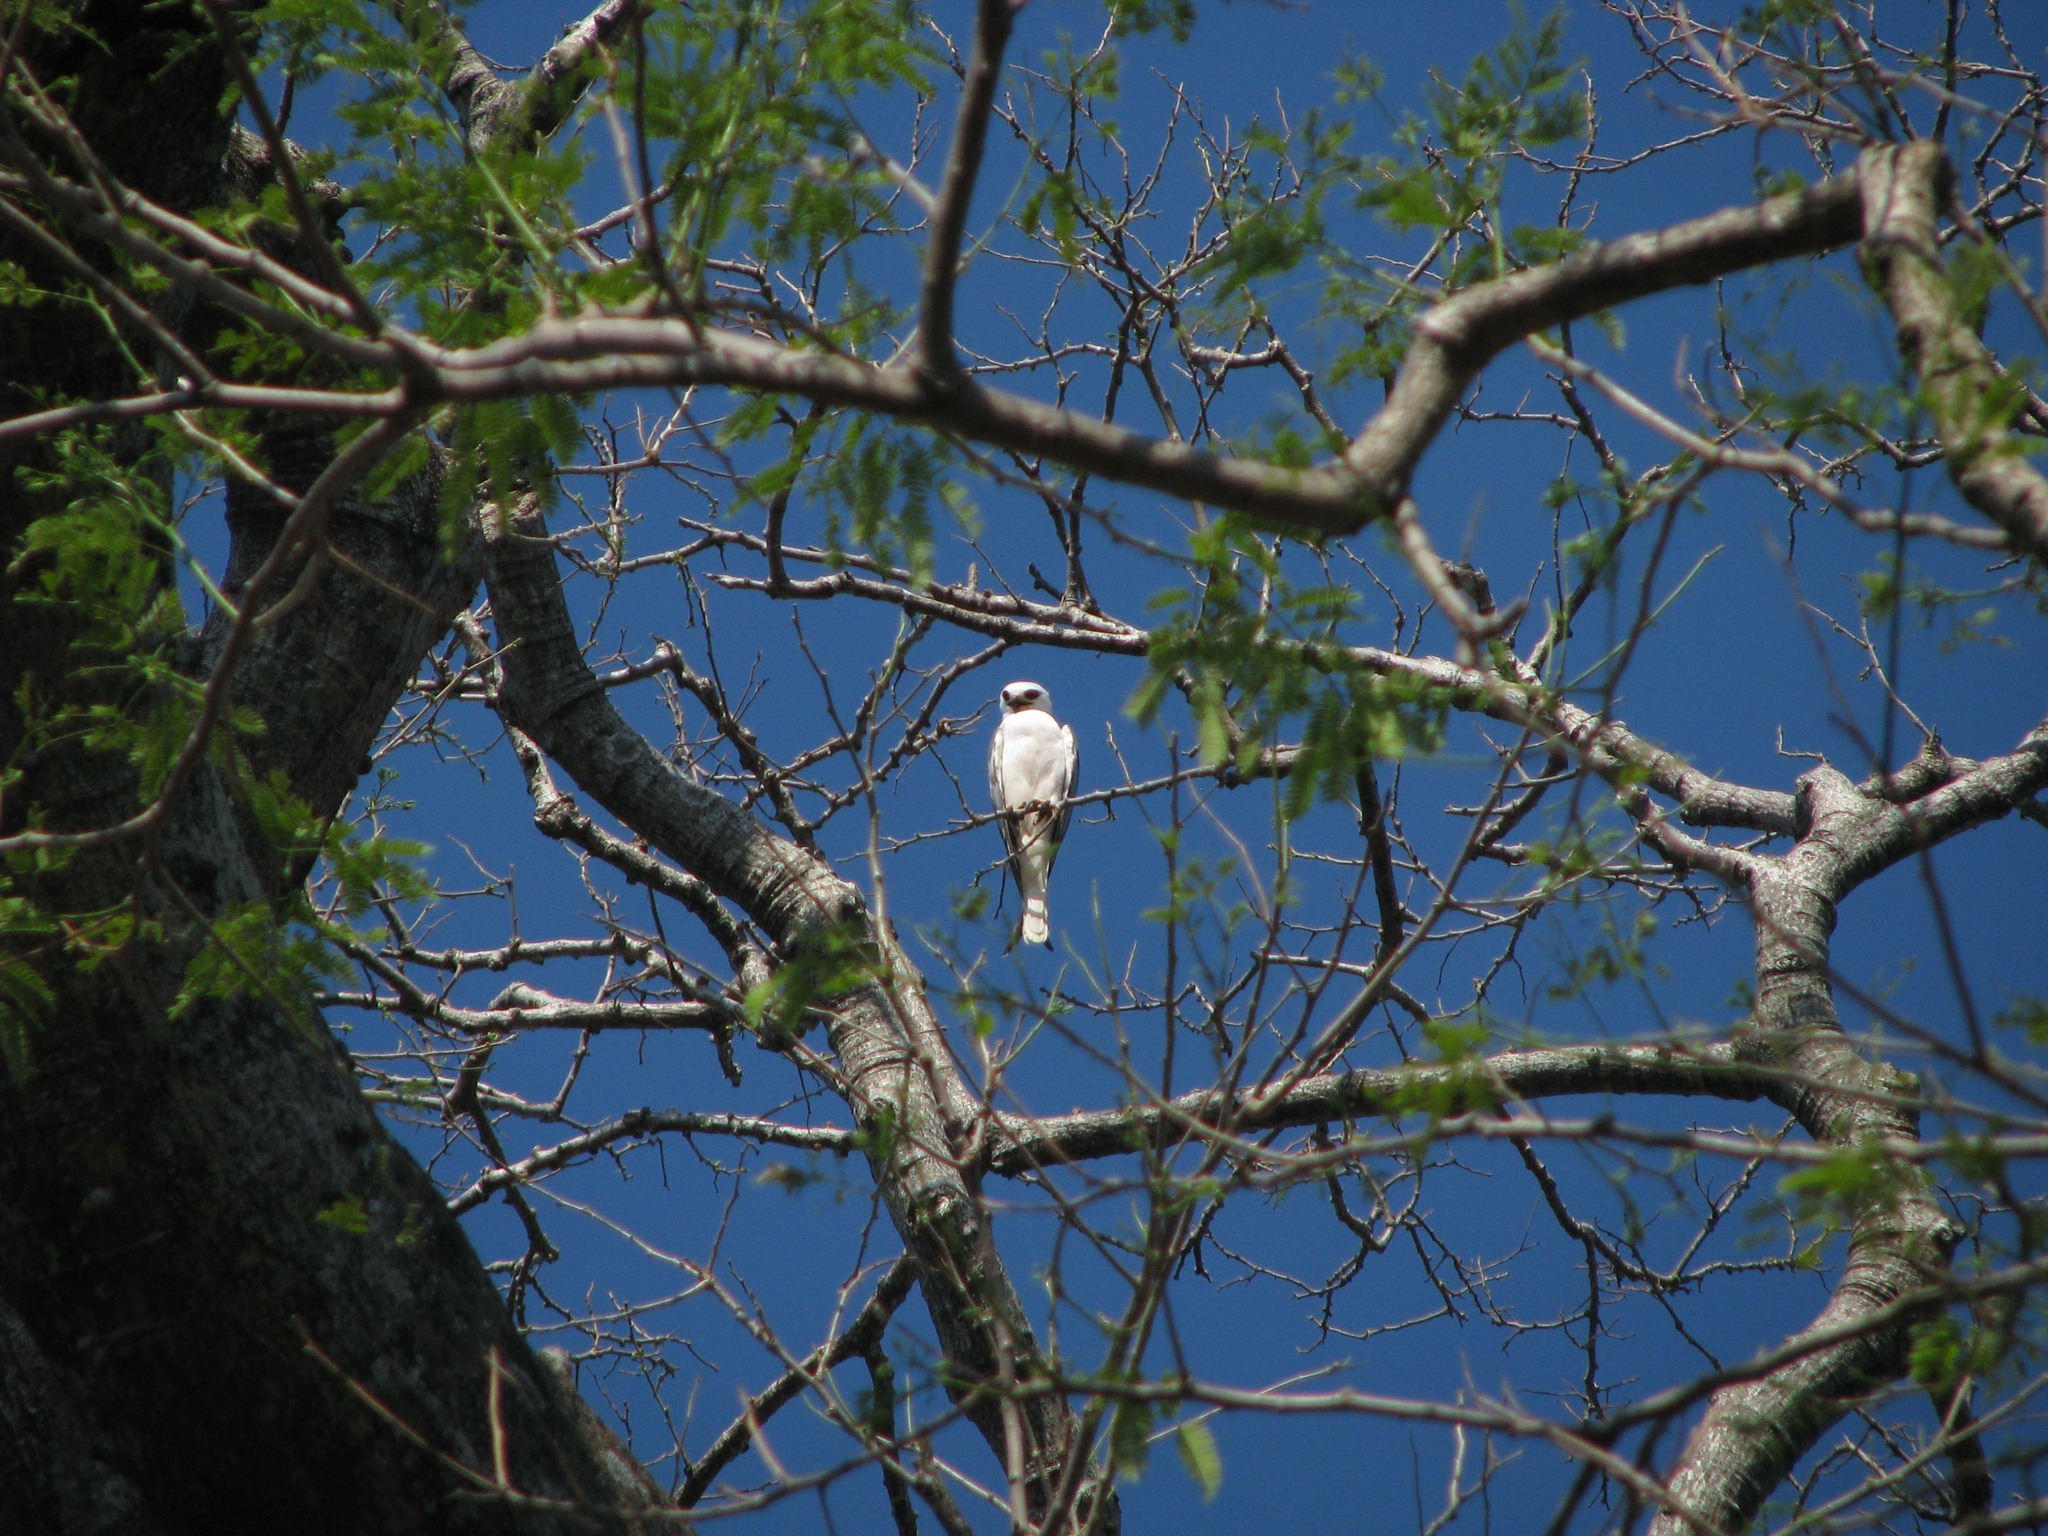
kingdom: Animalia
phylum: Chordata
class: Aves
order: Accipitriformes
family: Accipitridae
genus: Elanus
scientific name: Elanus leucurus
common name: White-tailed kite
